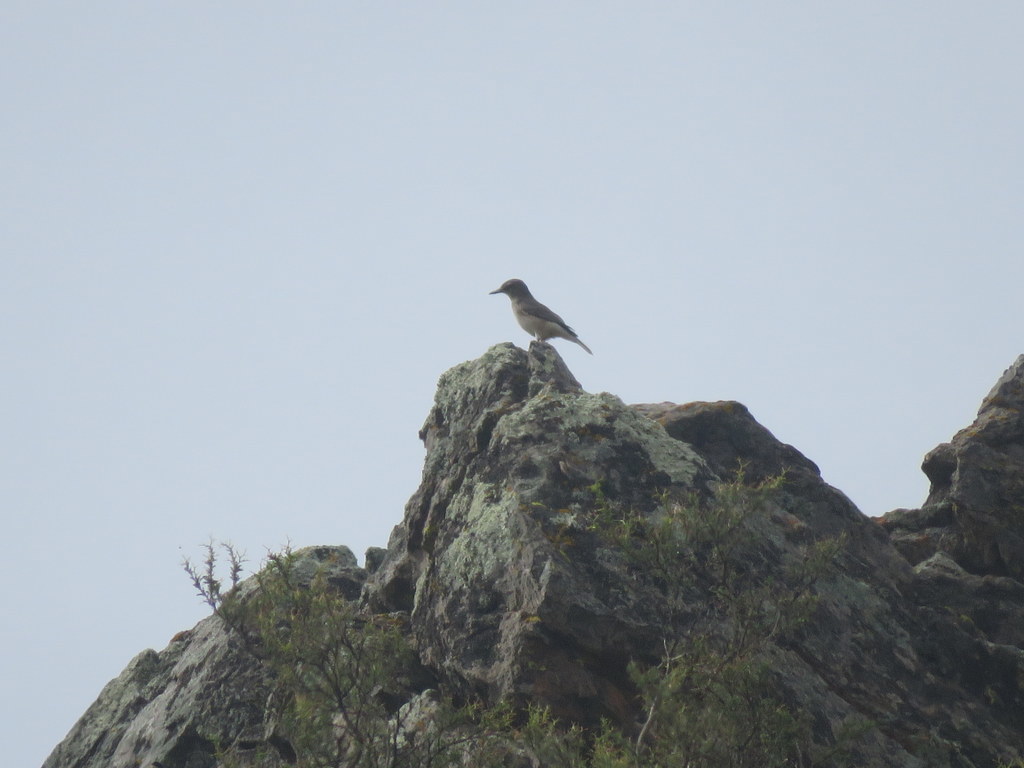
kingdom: Animalia
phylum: Chordata
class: Aves
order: Passeriformes
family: Tyrannidae
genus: Agriornis
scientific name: Agriornis montanus
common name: Black-billed shrike-tyrant
